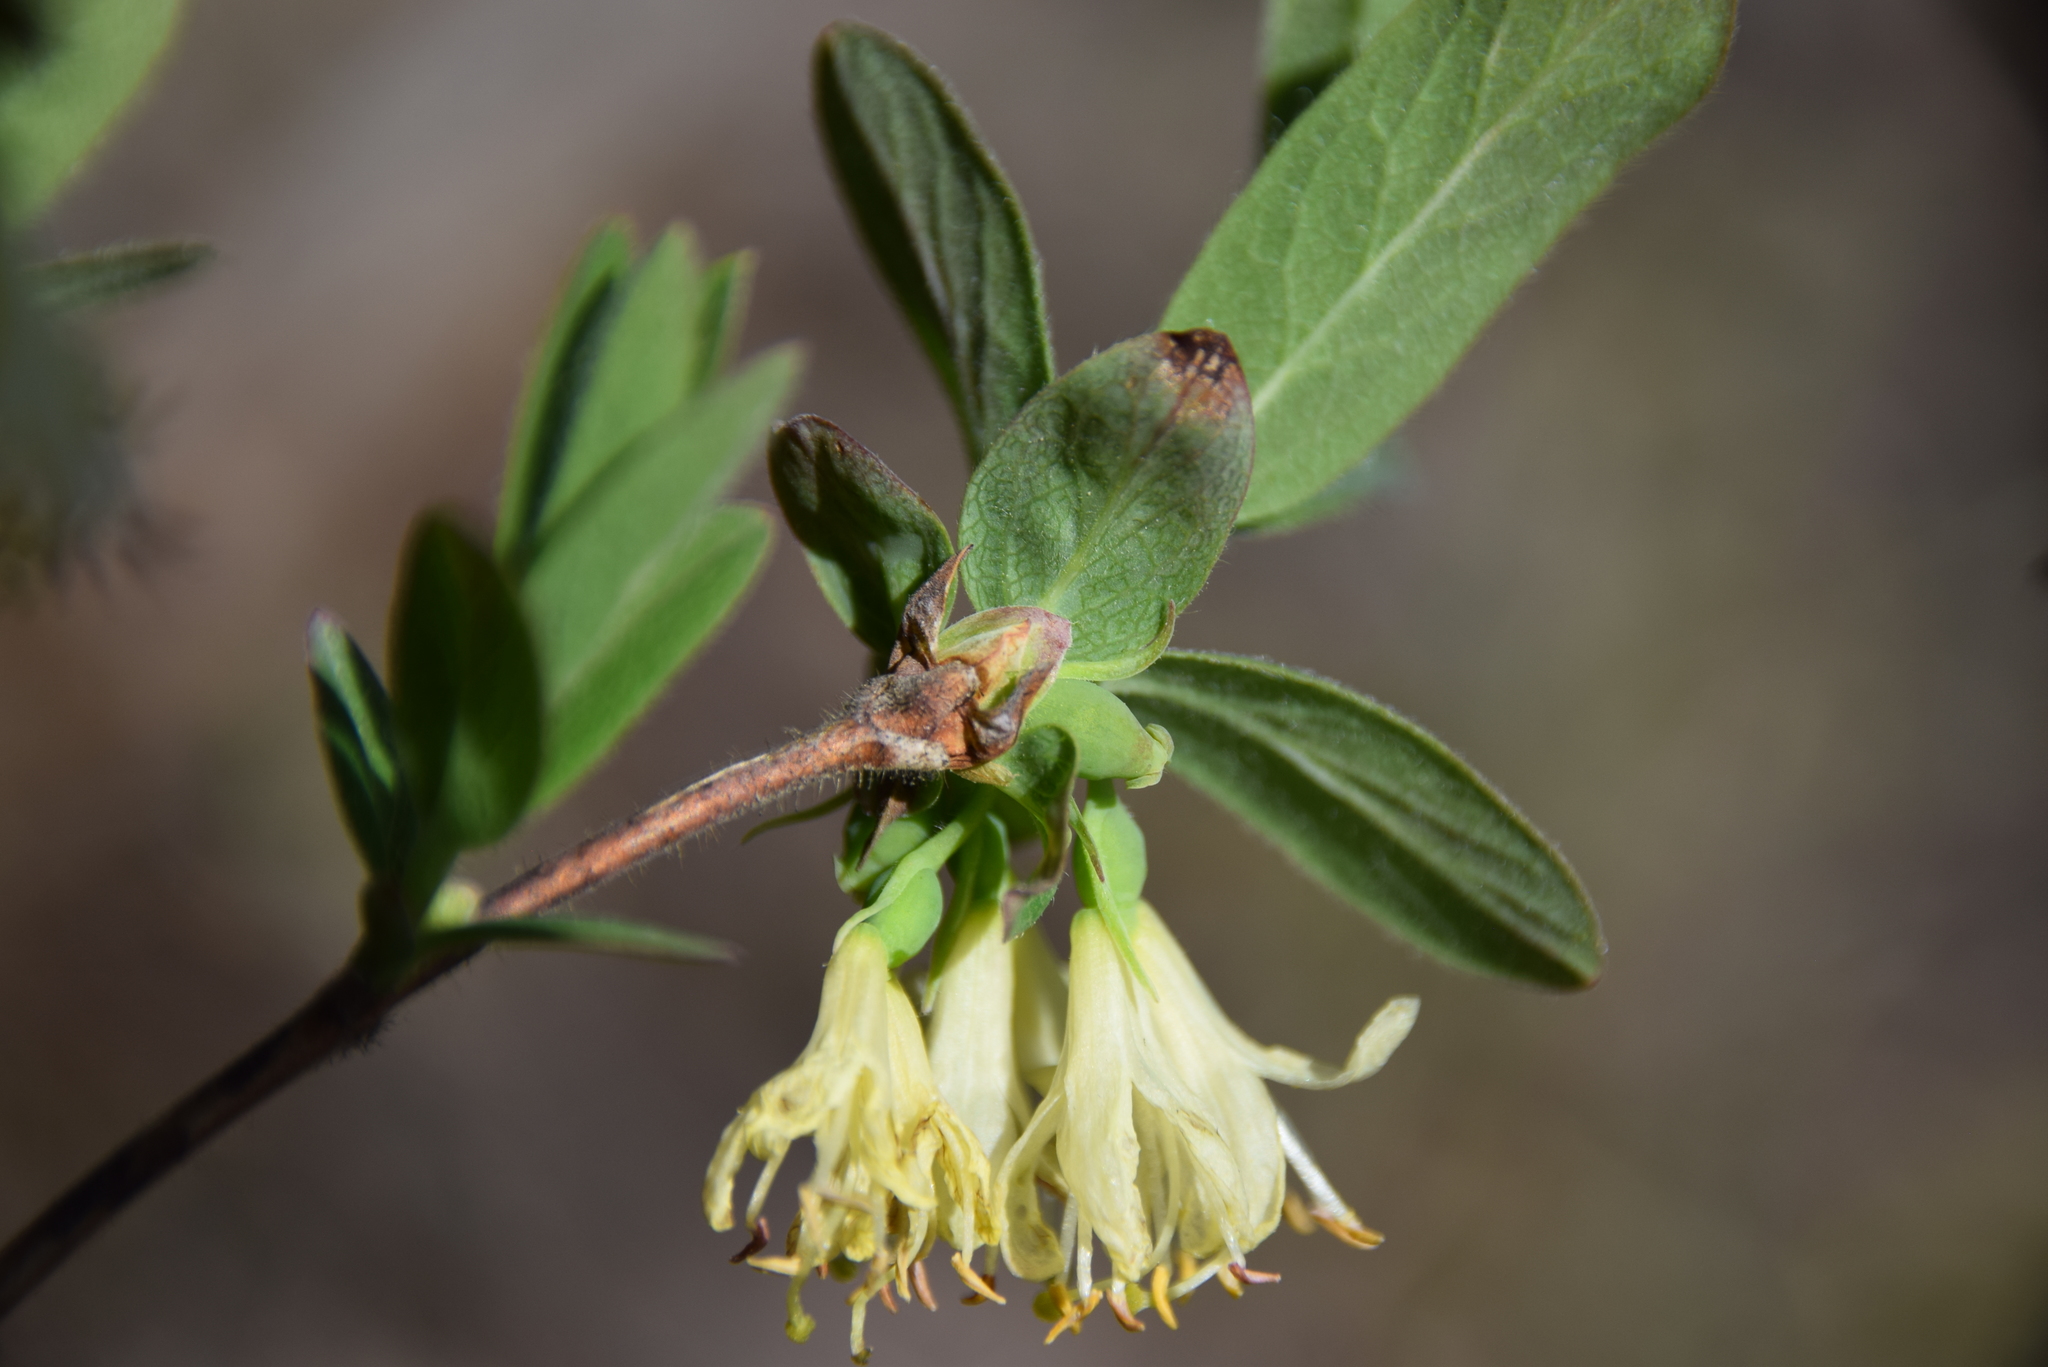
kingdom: Plantae
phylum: Tracheophyta
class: Magnoliopsida
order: Dipsacales
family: Caprifoliaceae
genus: Lonicera
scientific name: Lonicera villosa
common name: Mountain fly-honeysuckle
